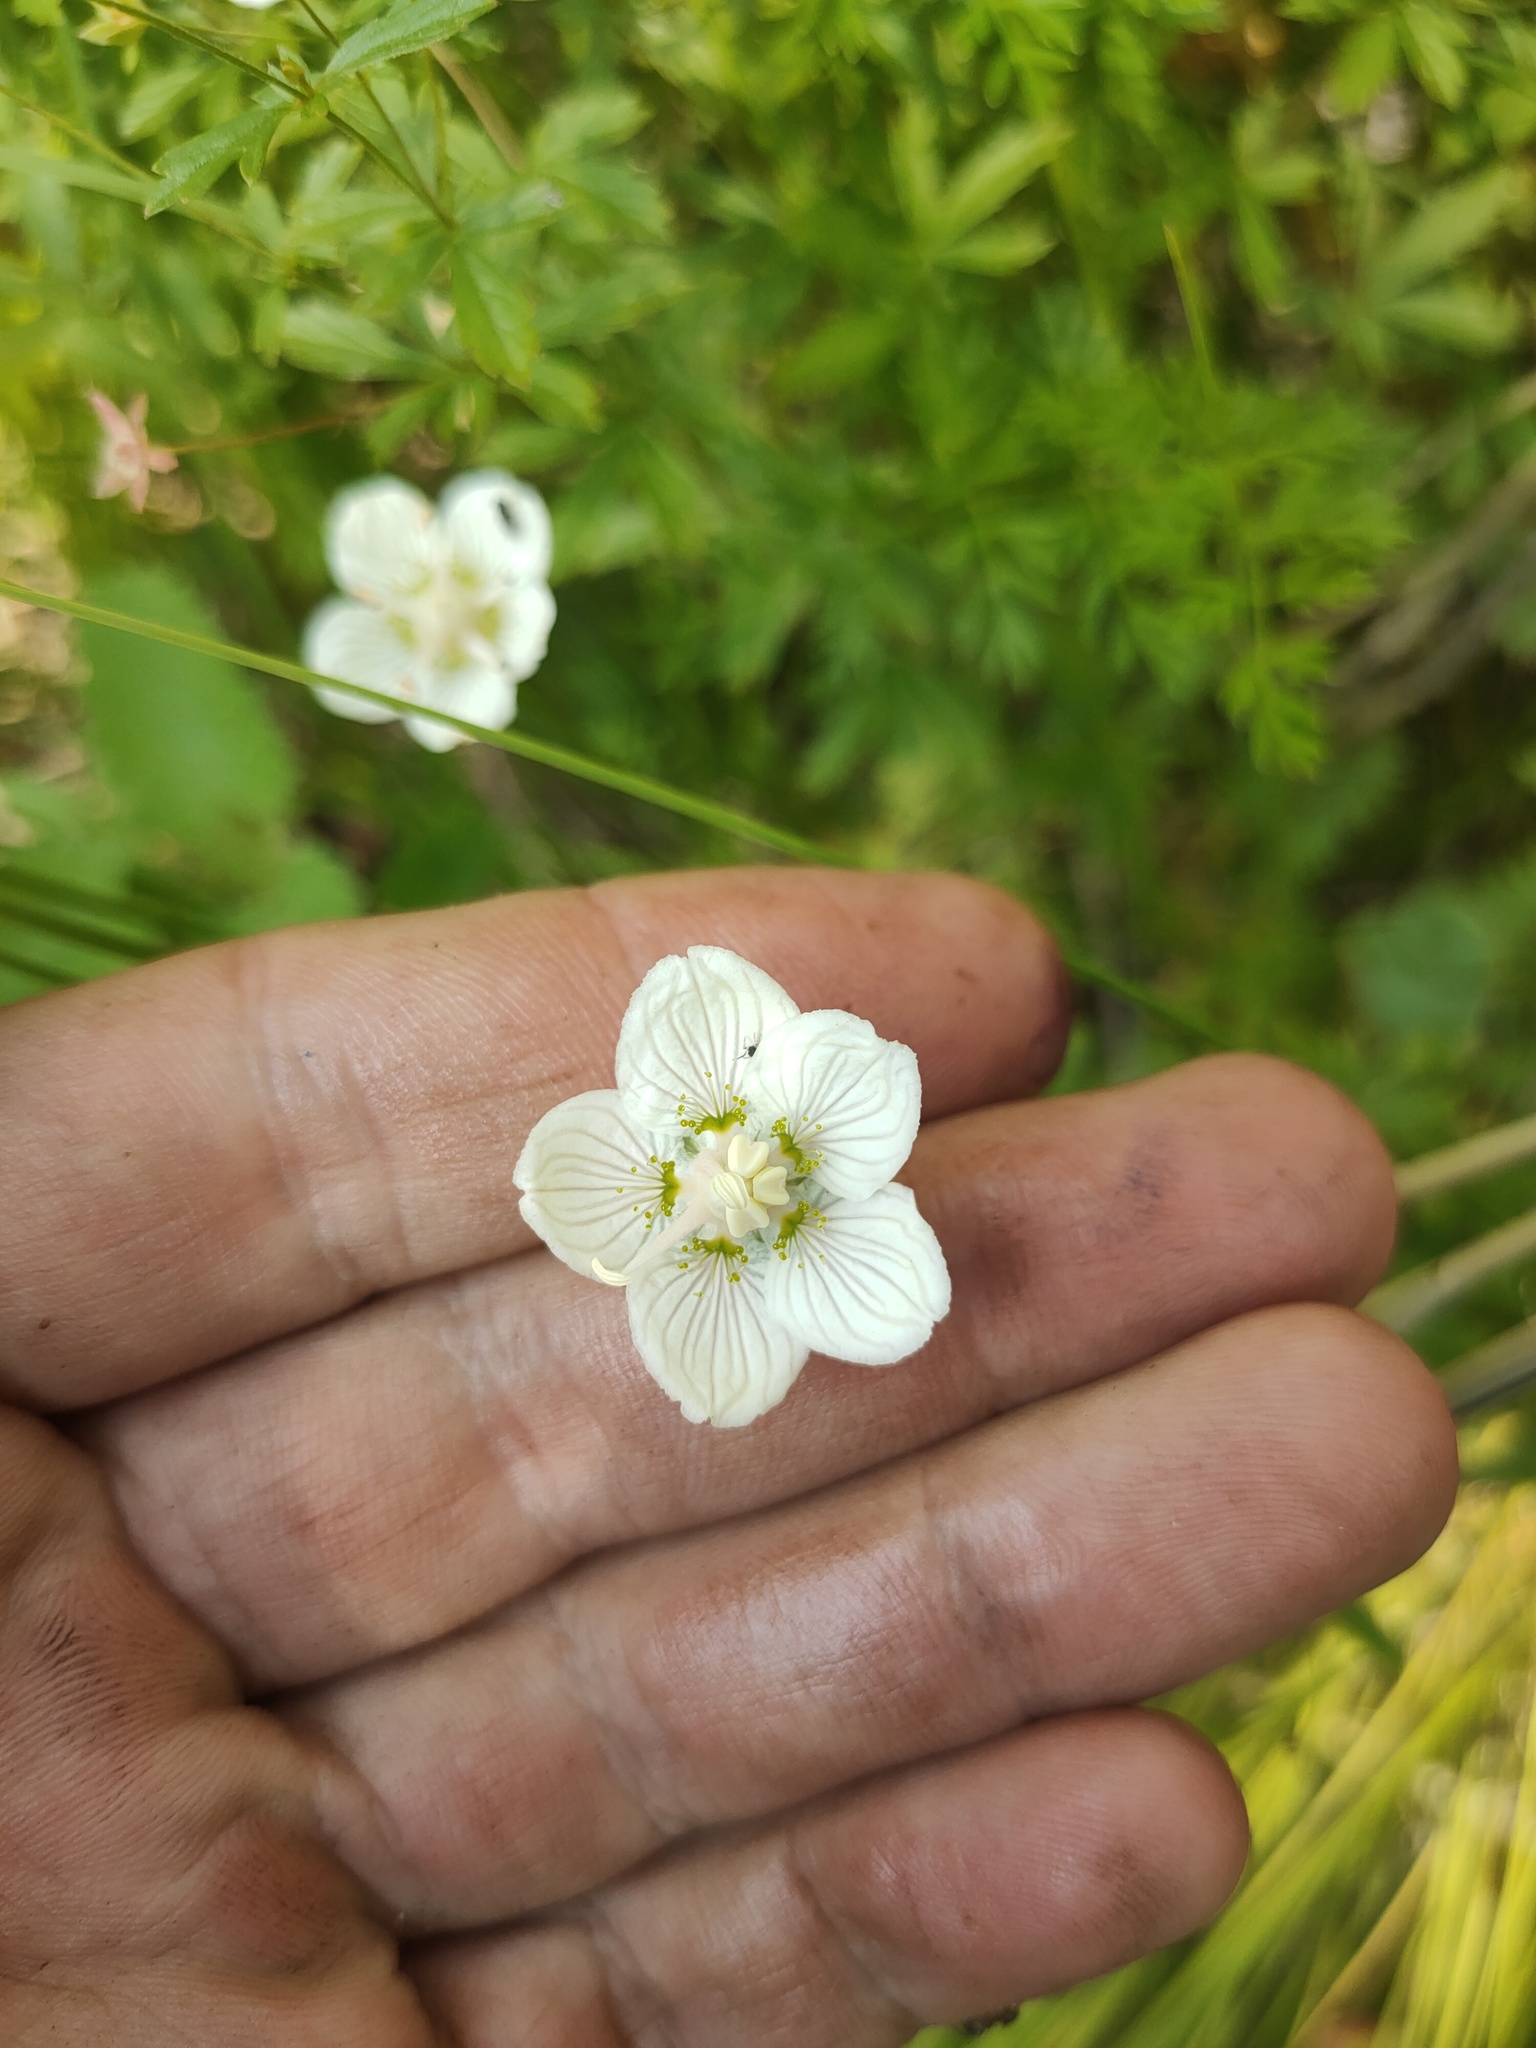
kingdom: Plantae
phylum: Tracheophyta
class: Magnoliopsida
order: Celastrales
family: Parnassiaceae
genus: Parnassia
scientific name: Parnassia palustris
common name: Grass-of-parnassus
